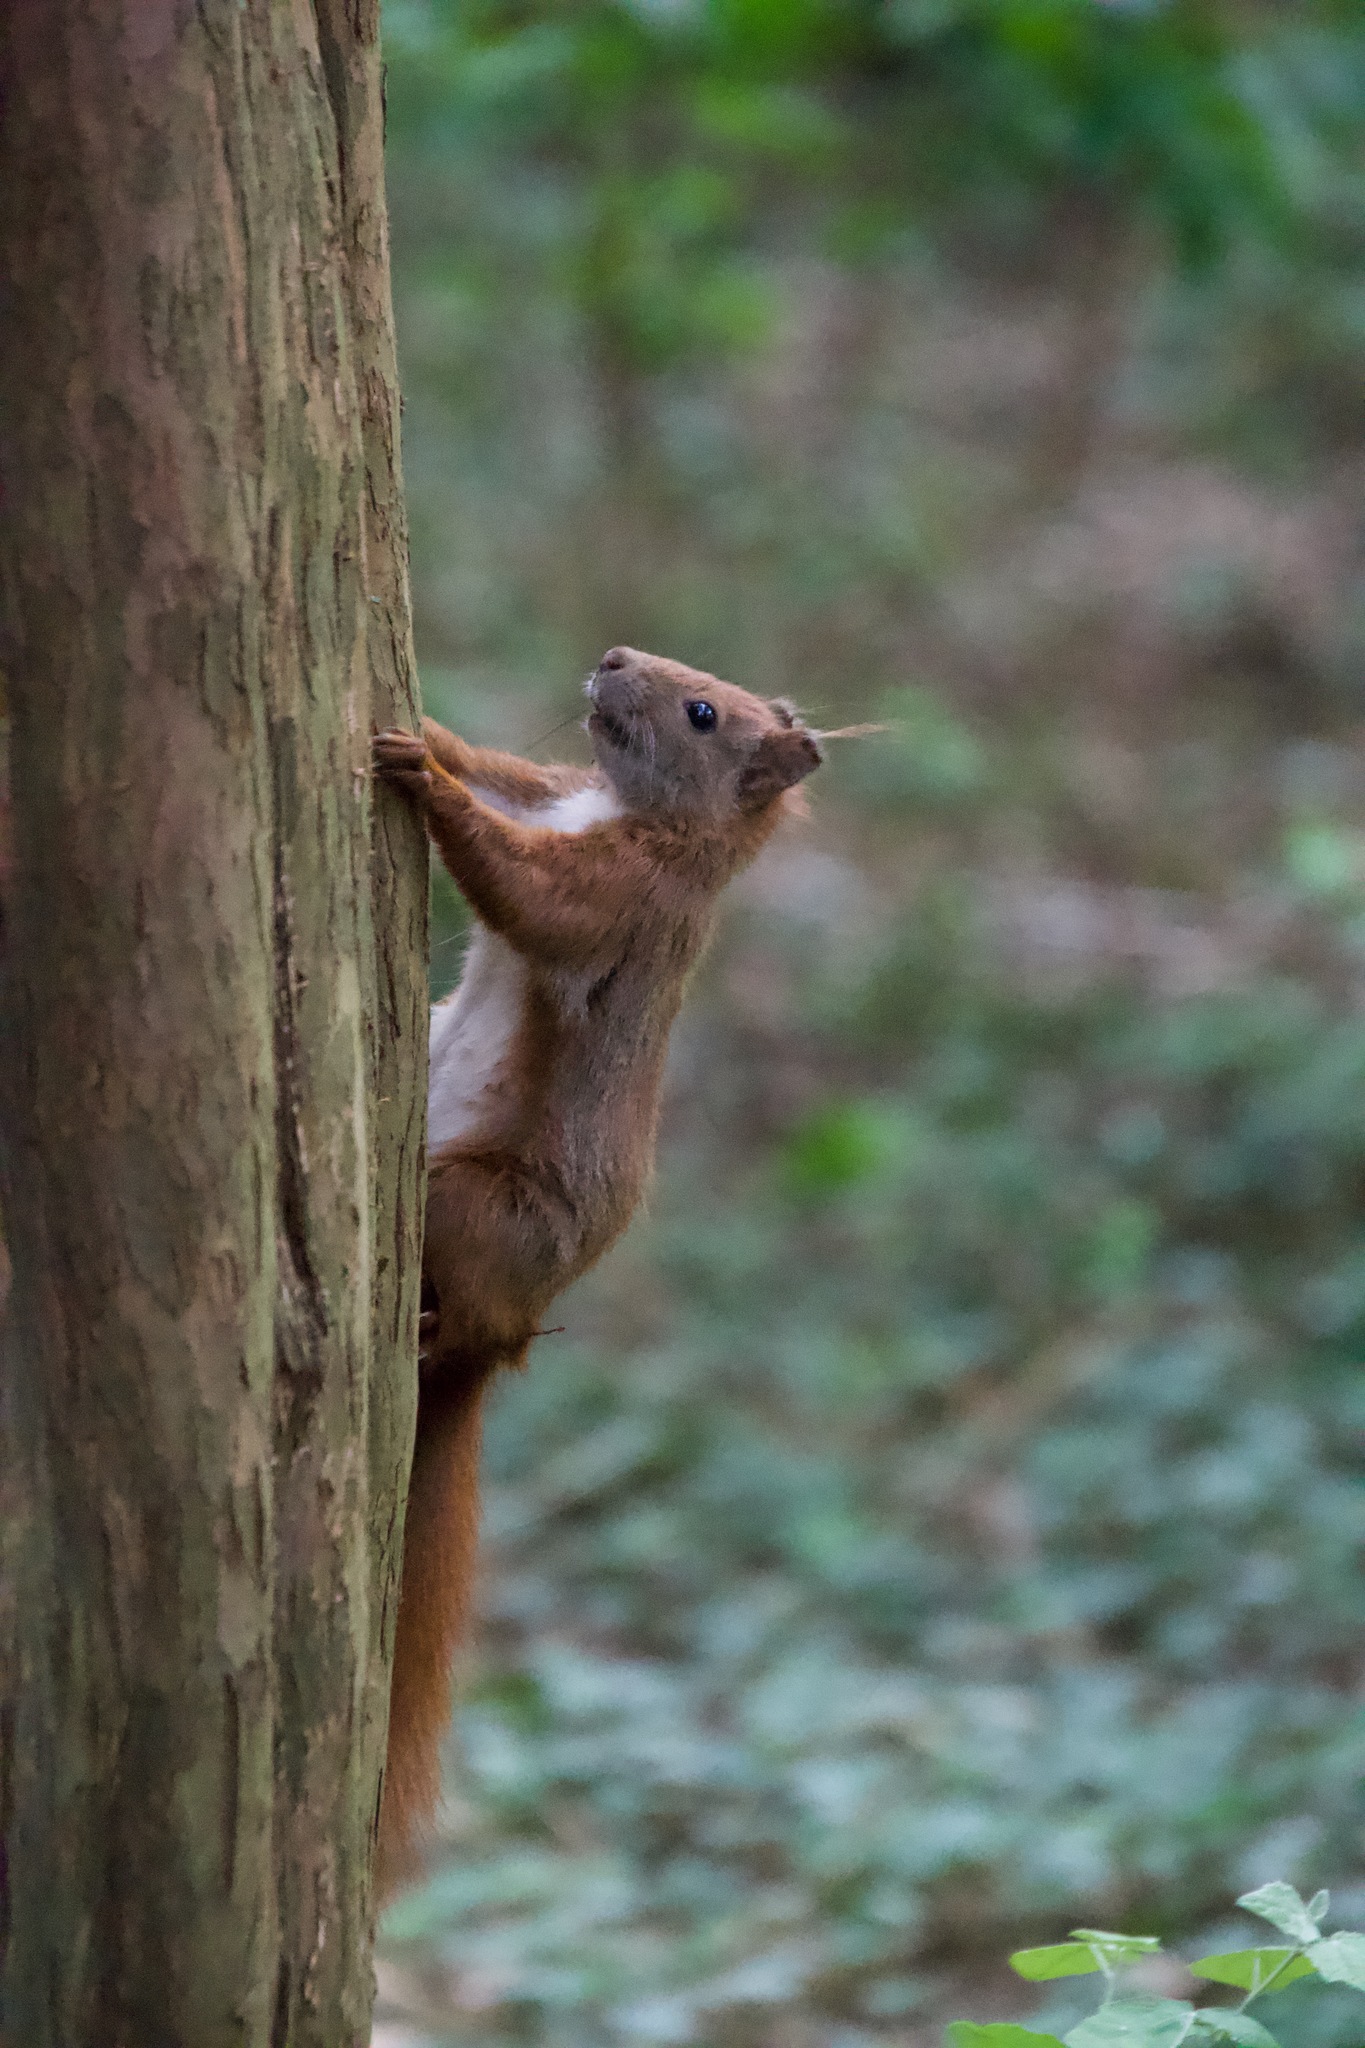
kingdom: Animalia
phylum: Chordata
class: Mammalia
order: Rodentia
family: Sciuridae
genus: Sciurus
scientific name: Sciurus vulgaris
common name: Eurasian red squirrel
